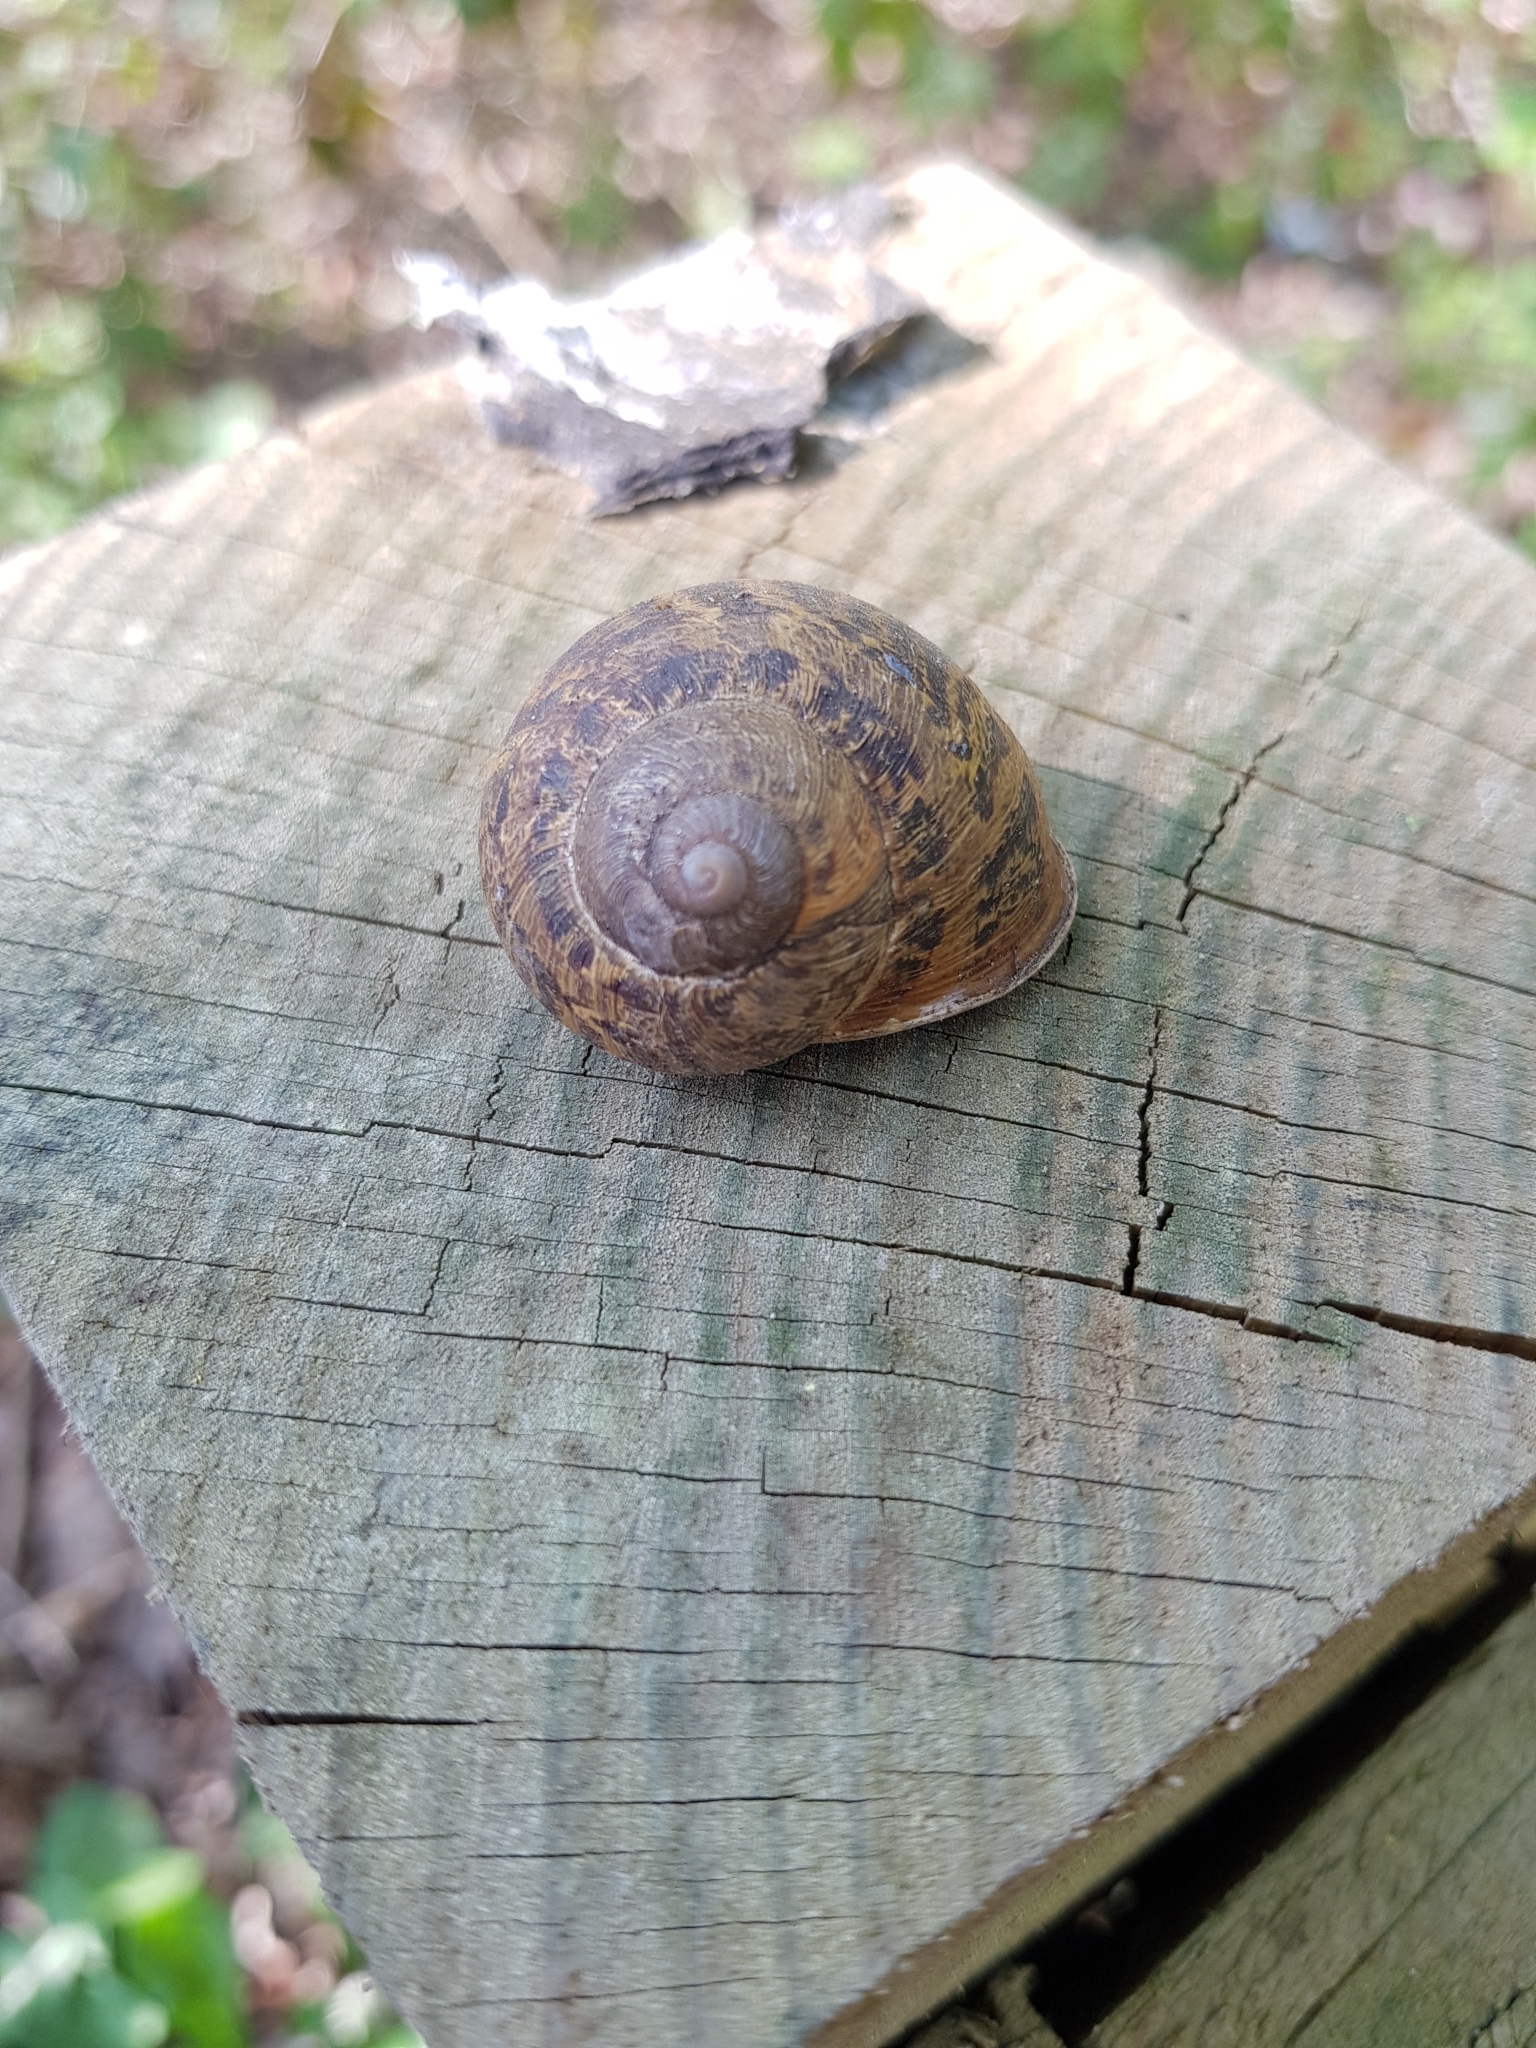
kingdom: Animalia
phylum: Mollusca
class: Gastropoda
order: Stylommatophora
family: Helicidae
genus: Cornu
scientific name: Cornu aspersum
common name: Brown garden snail
